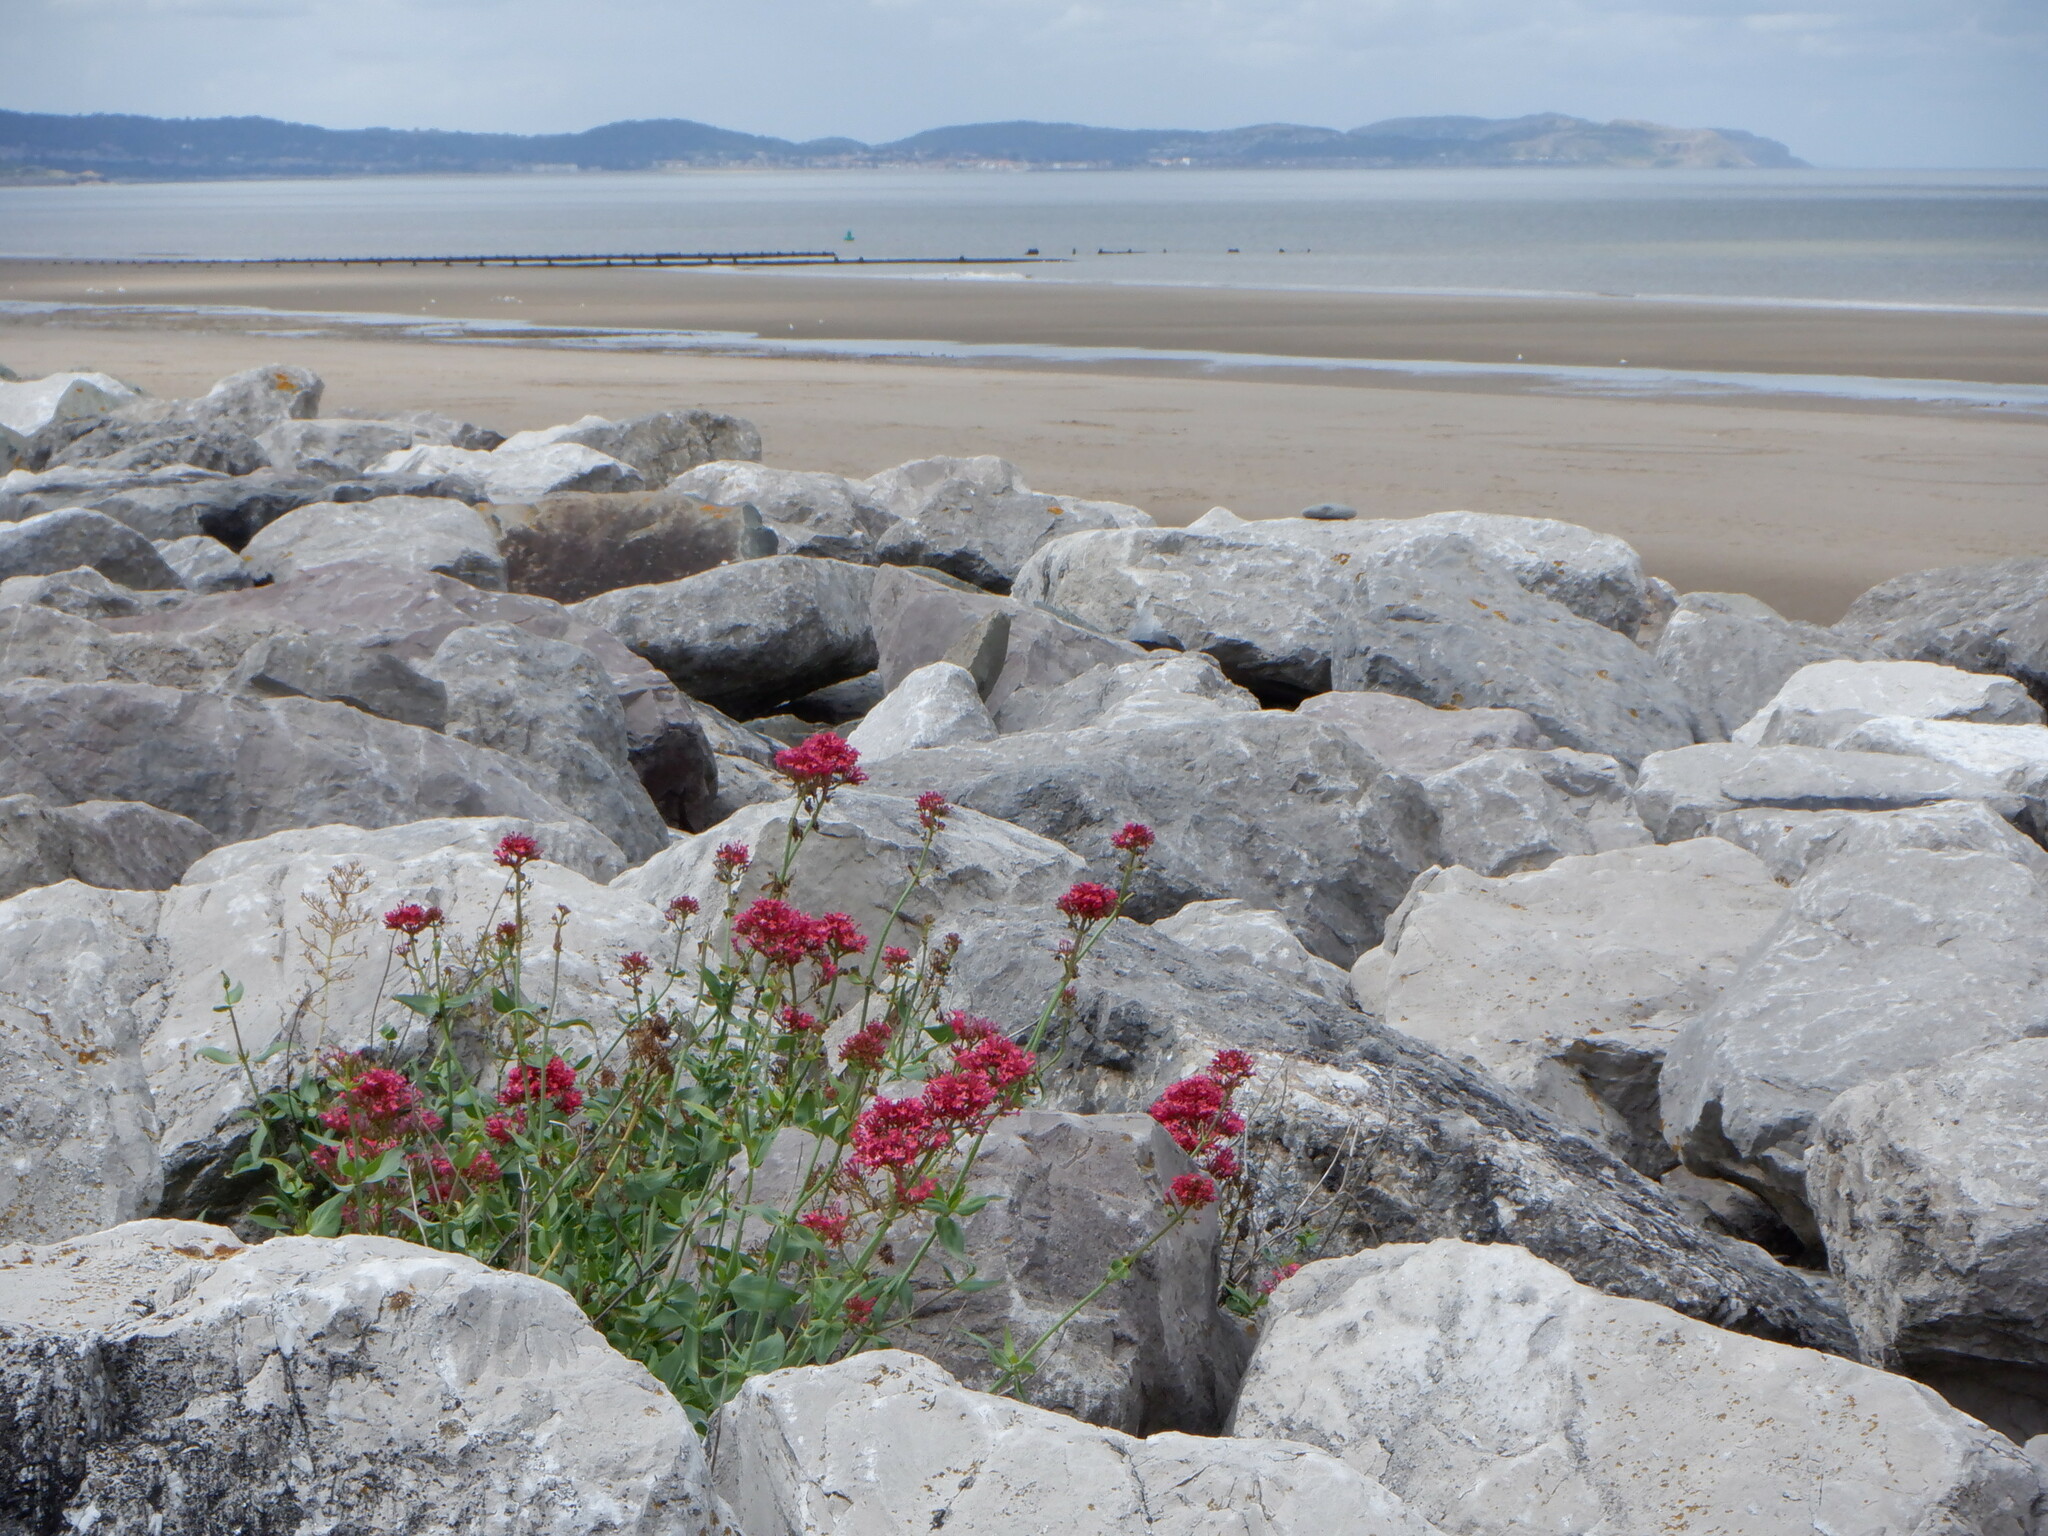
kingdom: Plantae
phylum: Tracheophyta
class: Magnoliopsida
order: Dipsacales
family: Caprifoliaceae
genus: Centranthus
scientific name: Centranthus ruber
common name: Red valerian
